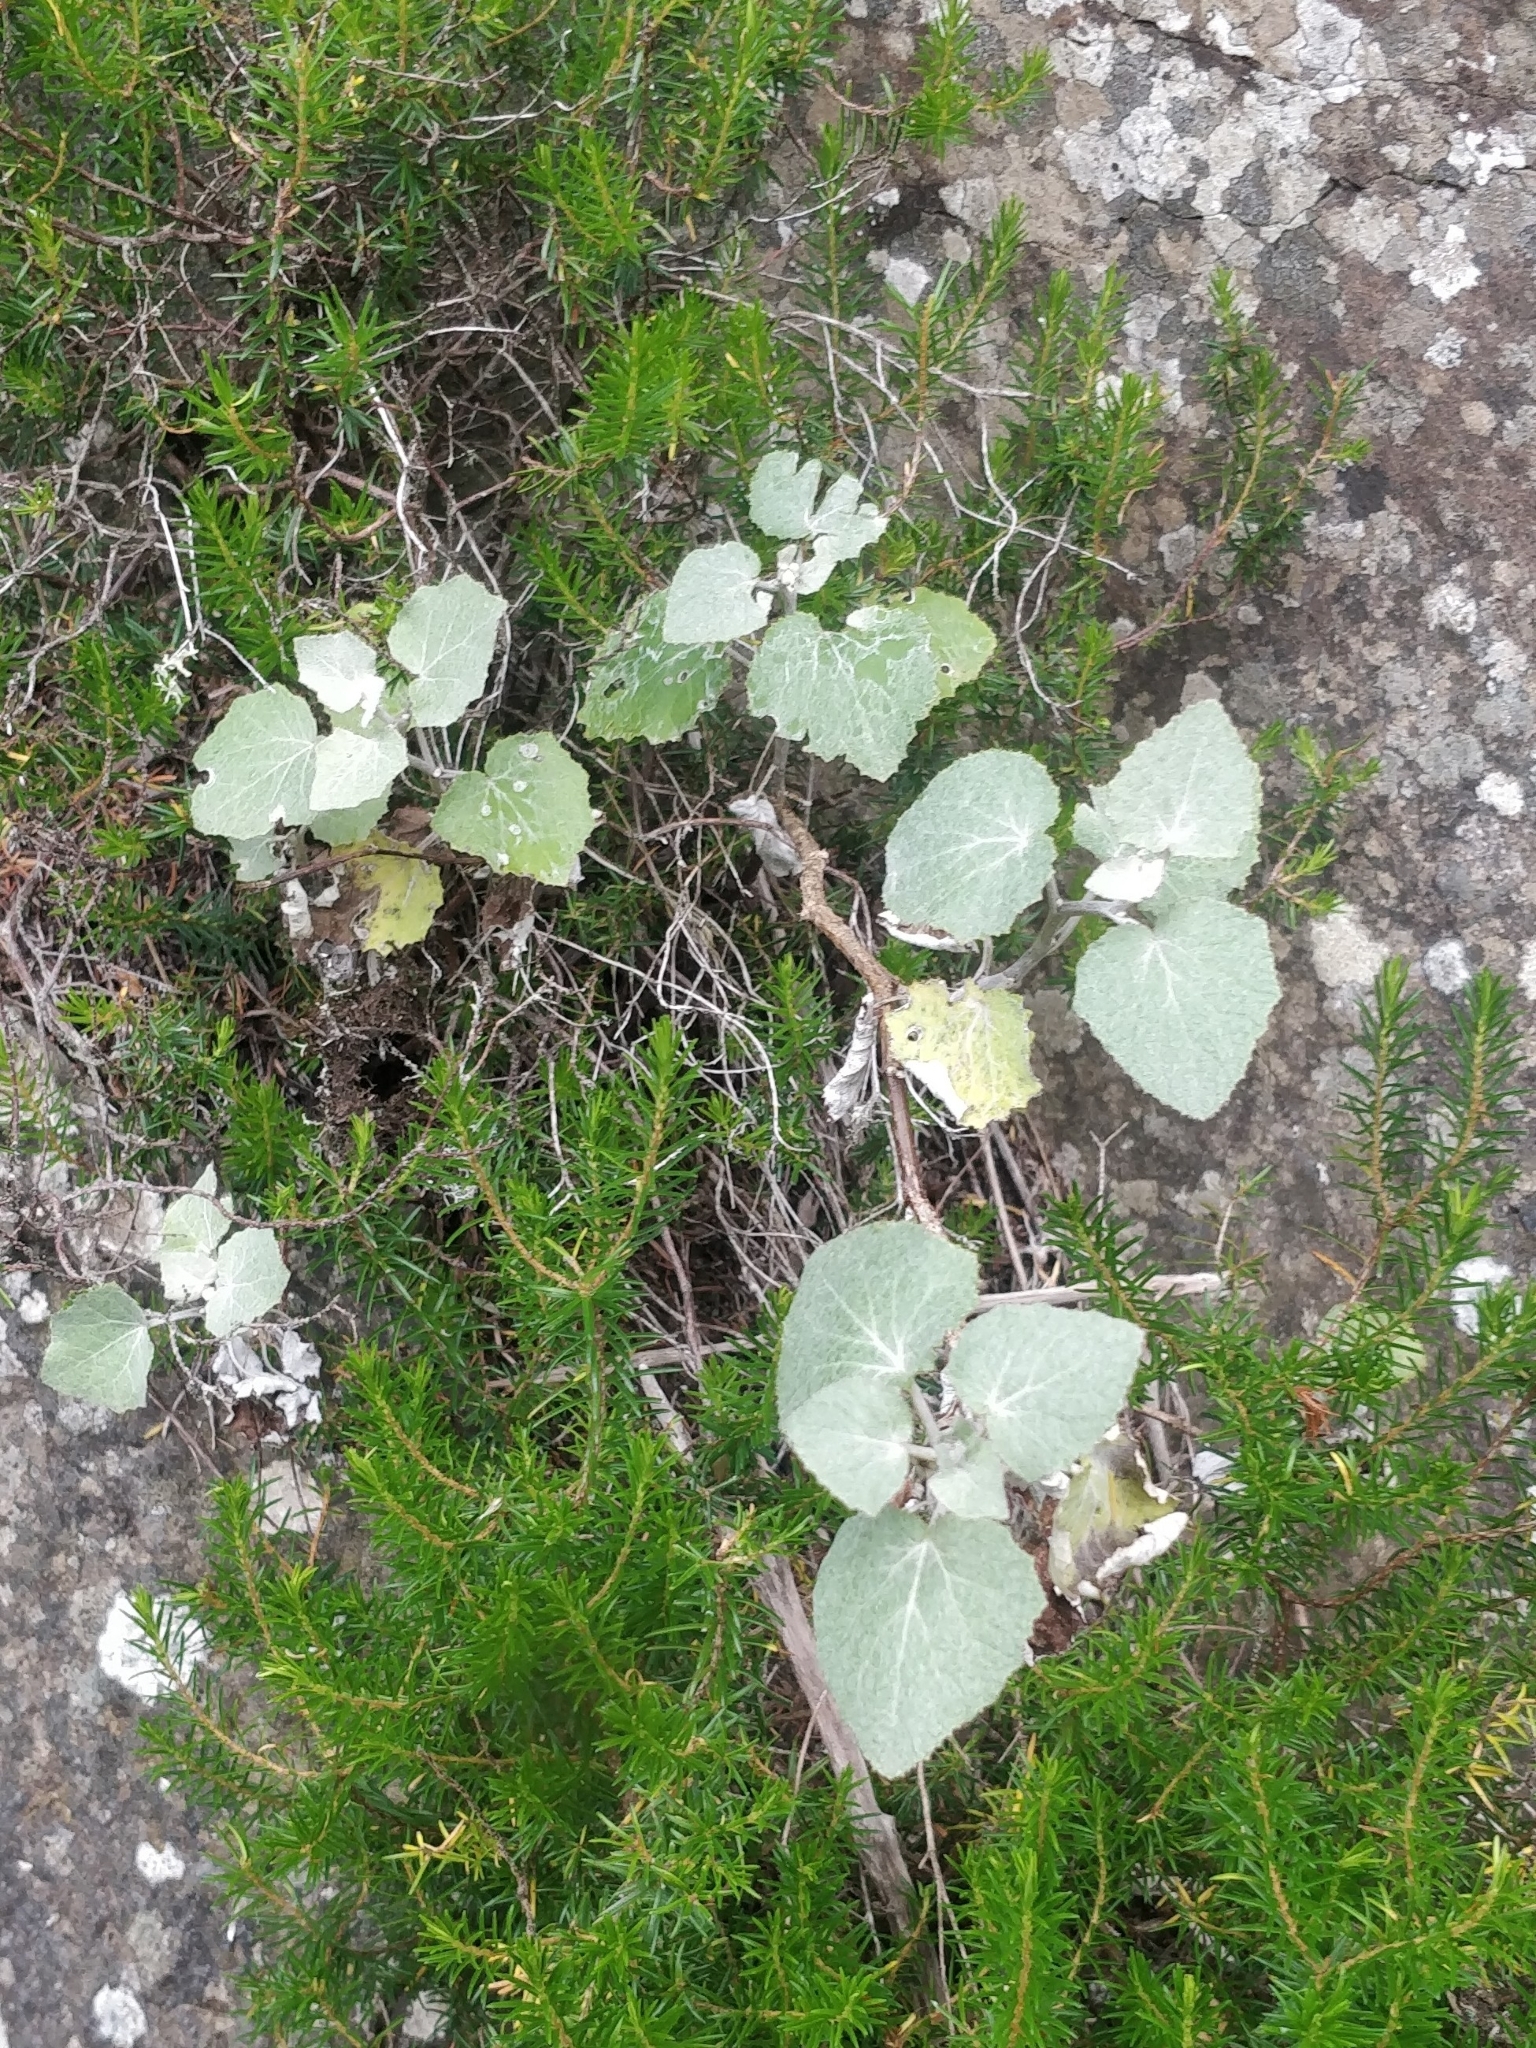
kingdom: Plantae
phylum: Tracheophyta
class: Magnoliopsida
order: Asterales
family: Asteraceae
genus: Pericallis
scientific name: Pericallis aurita
